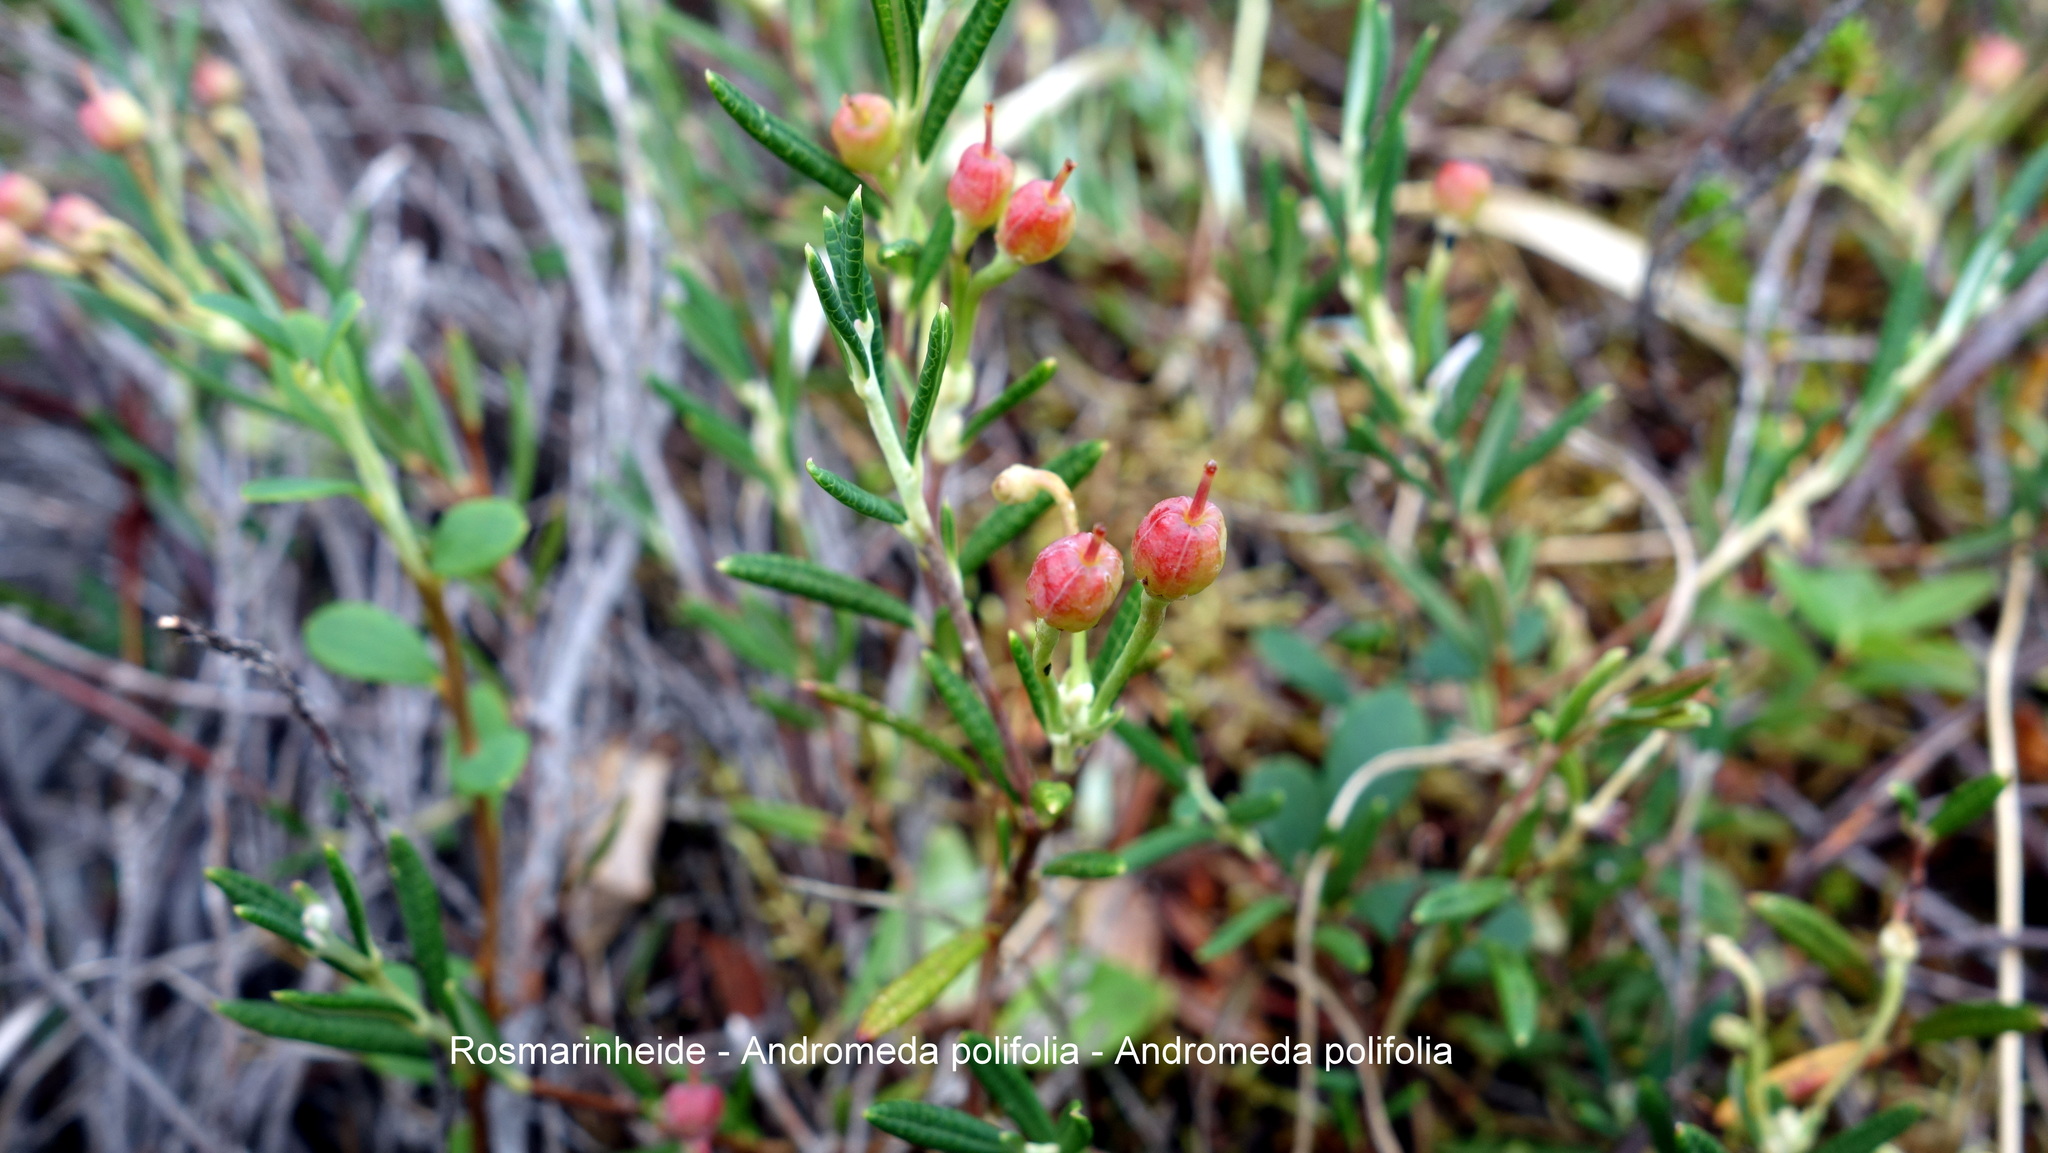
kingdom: Plantae
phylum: Tracheophyta
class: Magnoliopsida
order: Ericales
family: Ericaceae
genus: Andromeda
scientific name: Andromeda polifolia
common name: Bog-rosemary
